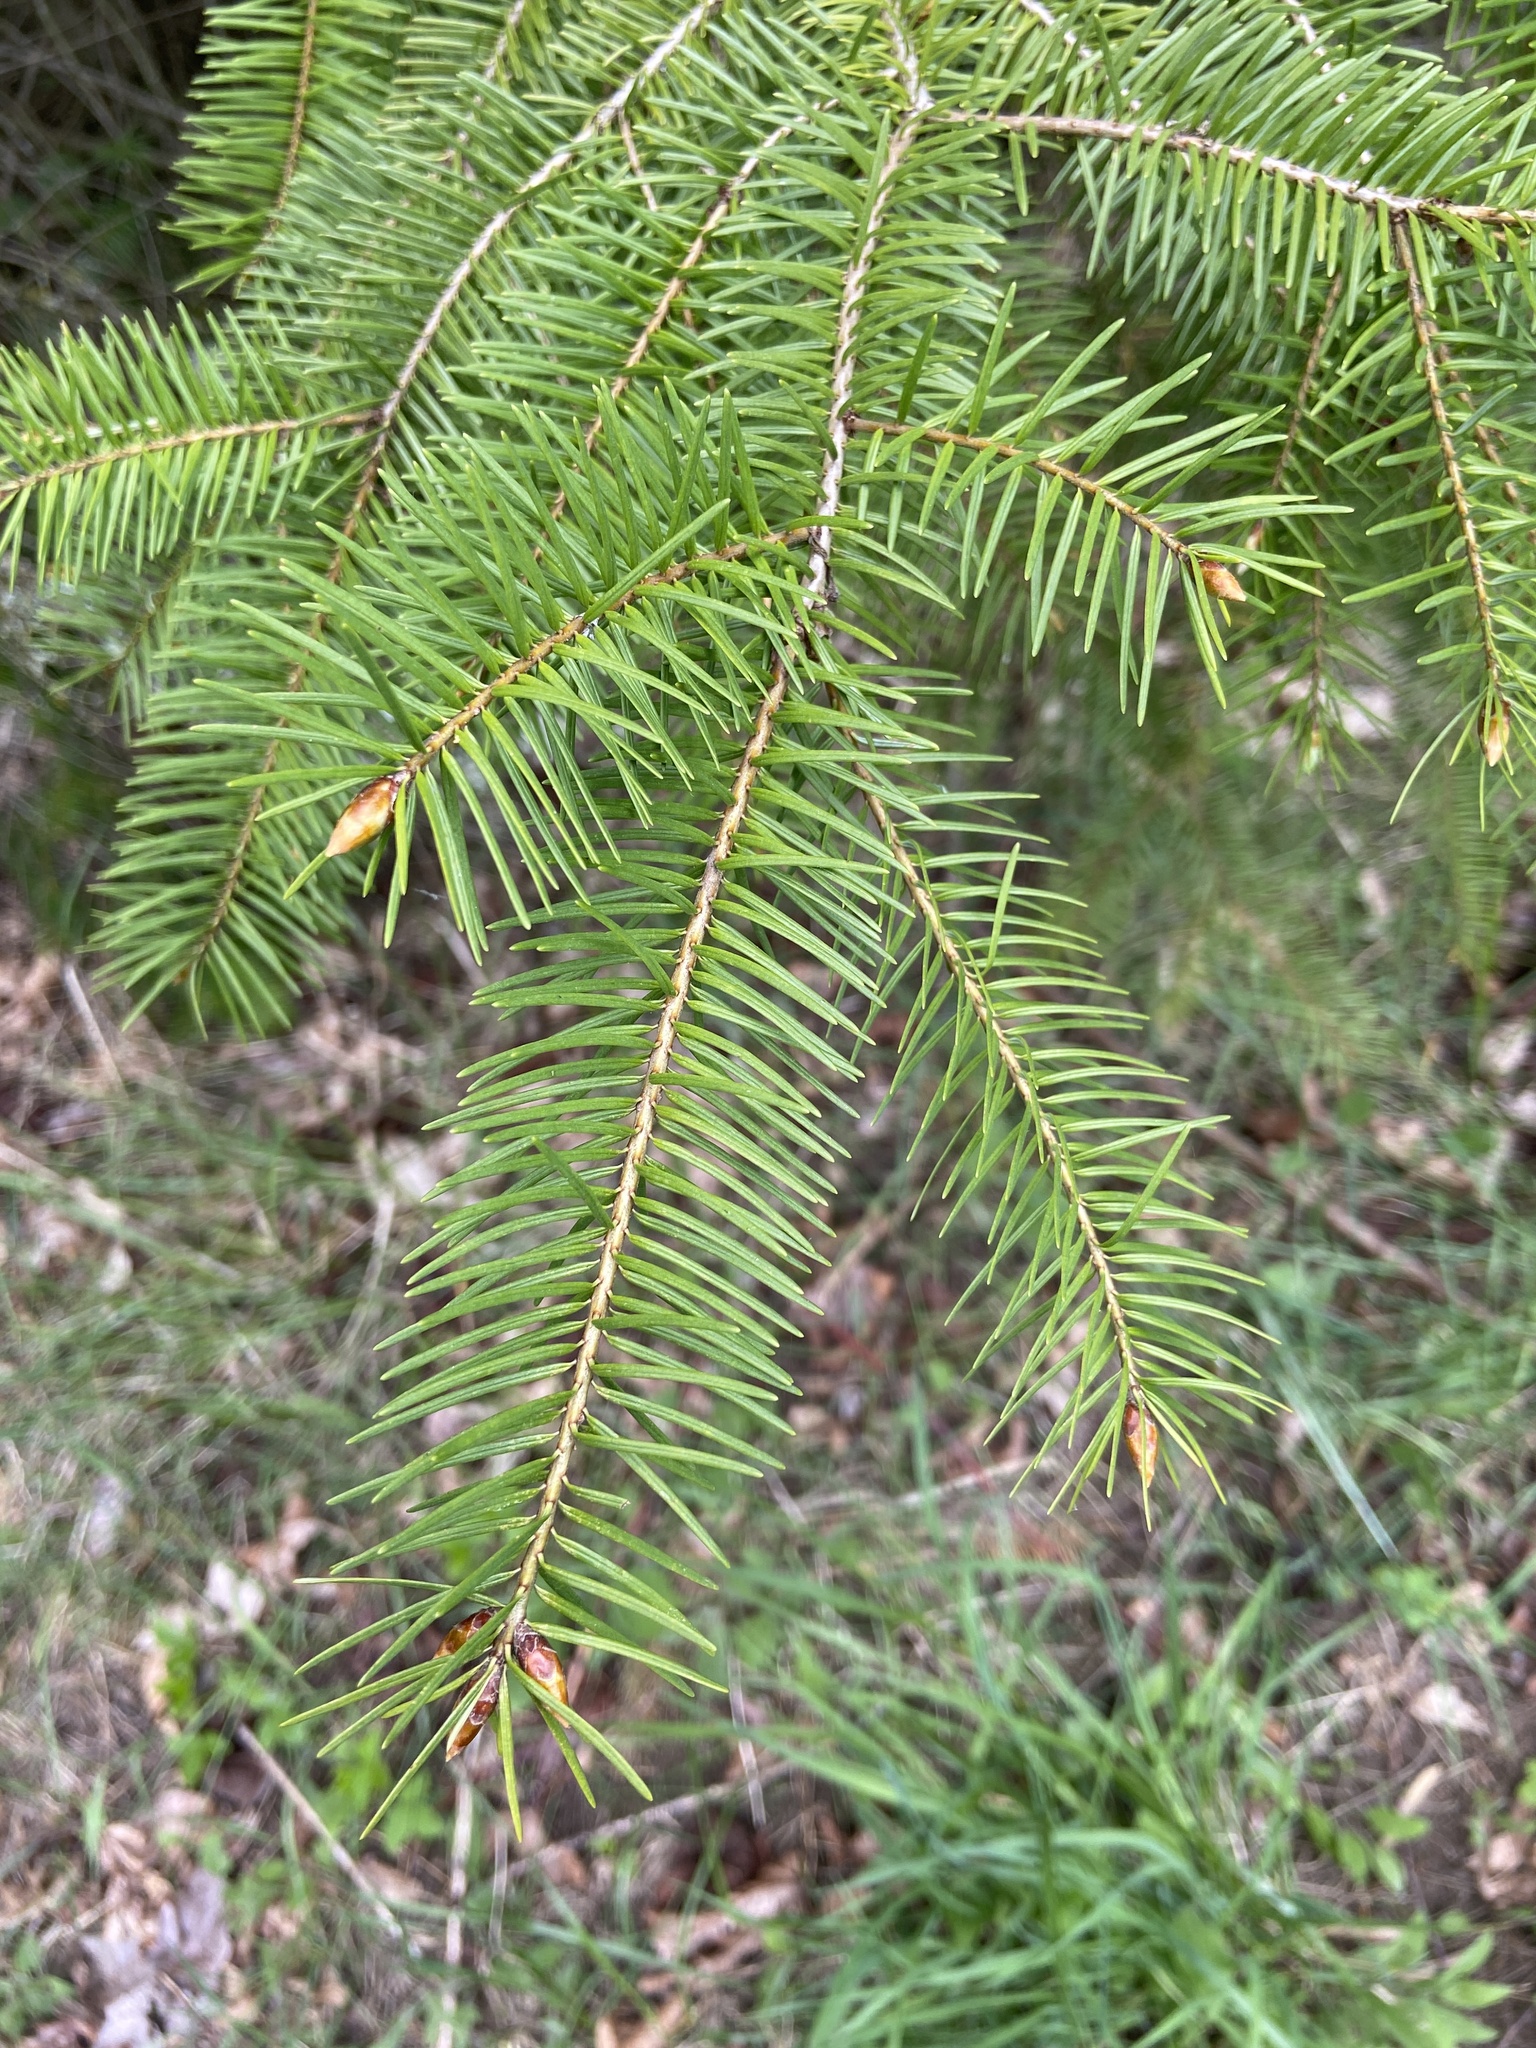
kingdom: Plantae
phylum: Tracheophyta
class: Pinopsida
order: Pinales
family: Pinaceae
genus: Pseudotsuga
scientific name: Pseudotsuga menziesii
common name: Douglas fir
